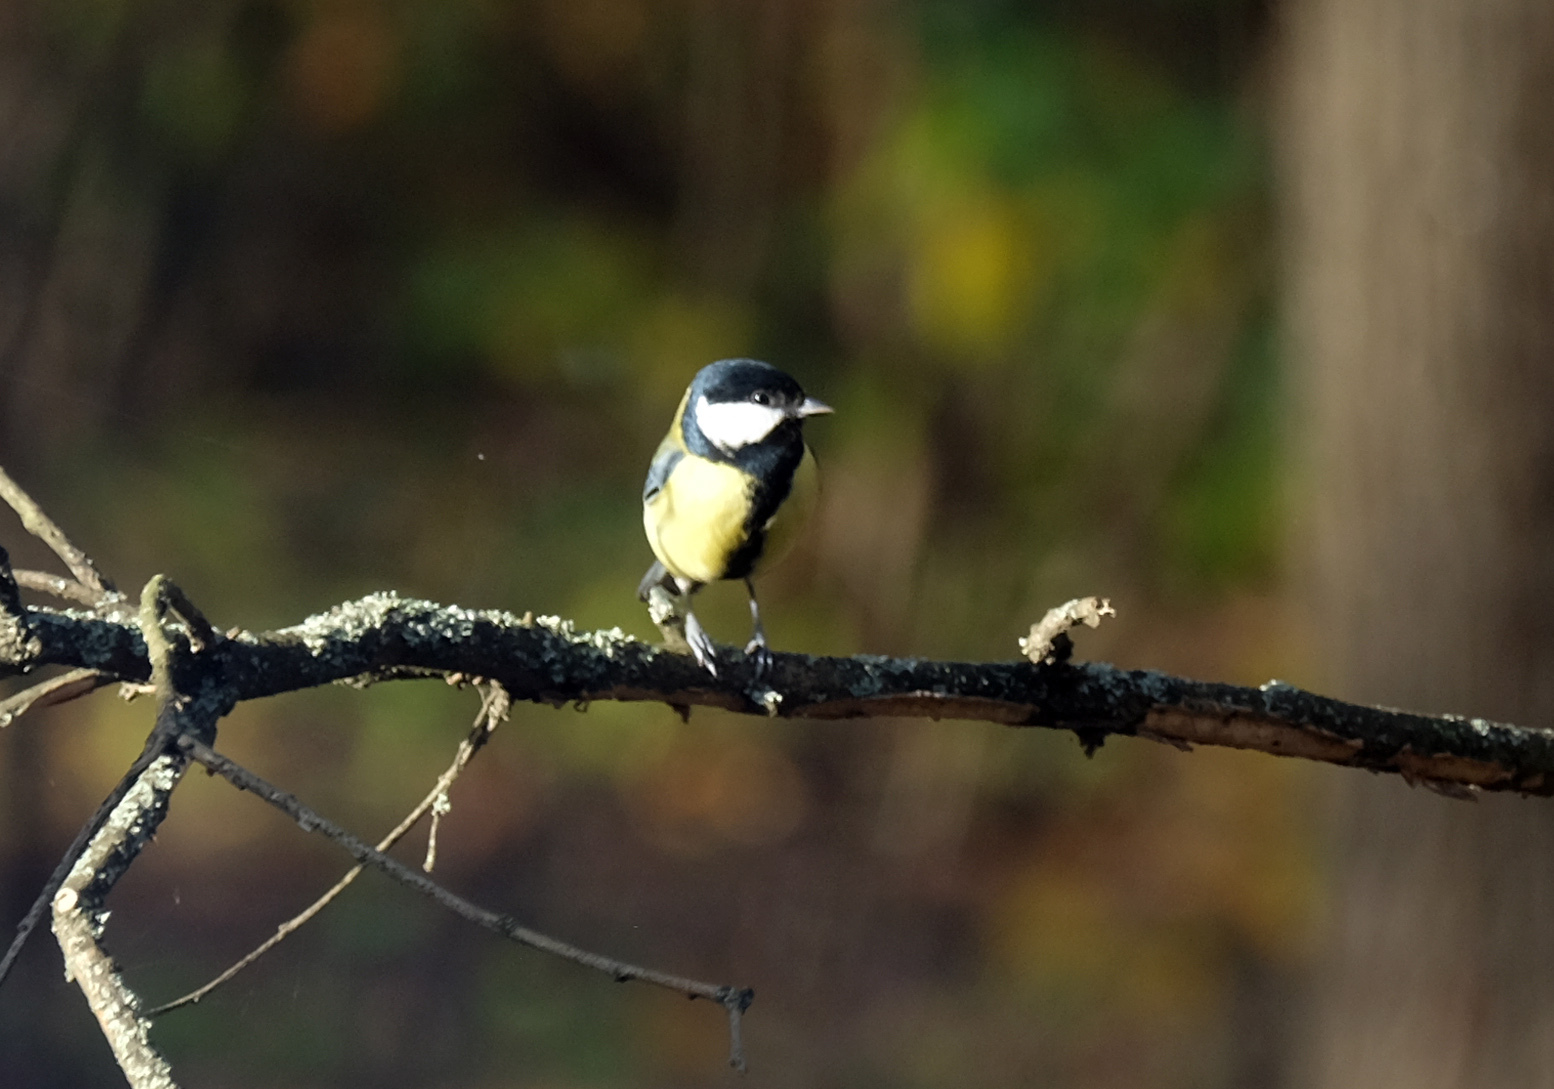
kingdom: Animalia
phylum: Chordata
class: Aves
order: Passeriformes
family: Paridae
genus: Parus
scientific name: Parus major
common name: Great tit
